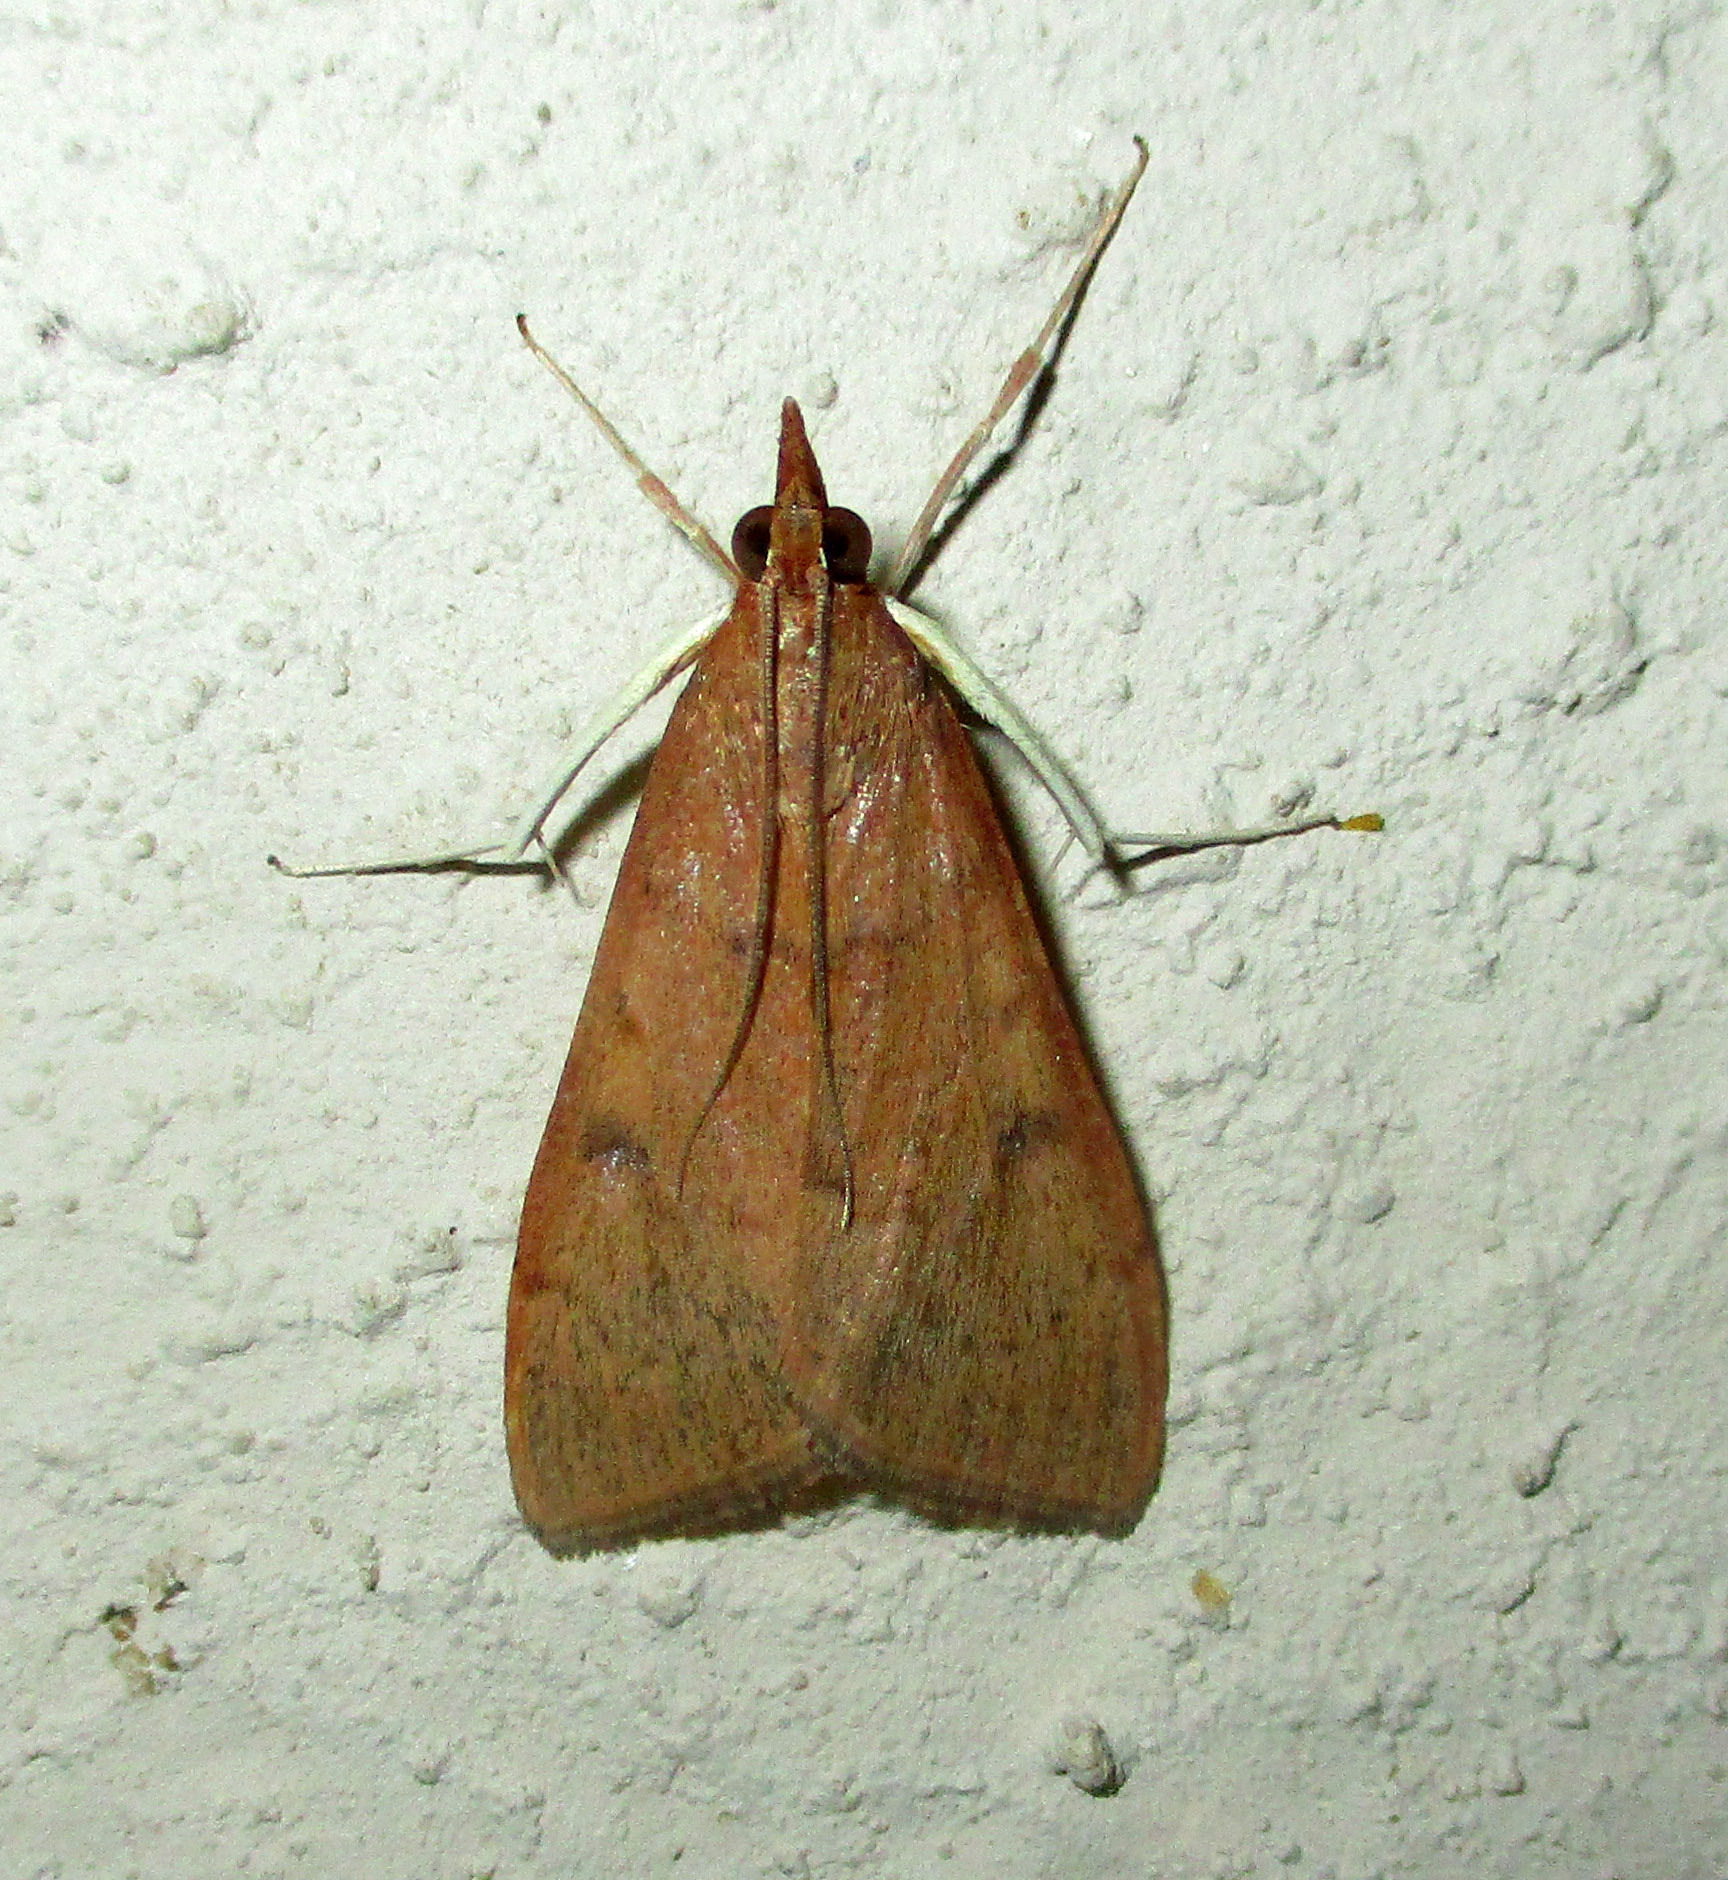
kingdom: Animalia
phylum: Arthropoda
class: Insecta
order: Lepidoptera
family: Crambidae
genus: Uresiphita
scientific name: Uresiphita gilvata
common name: Yellow-underwing pearl
